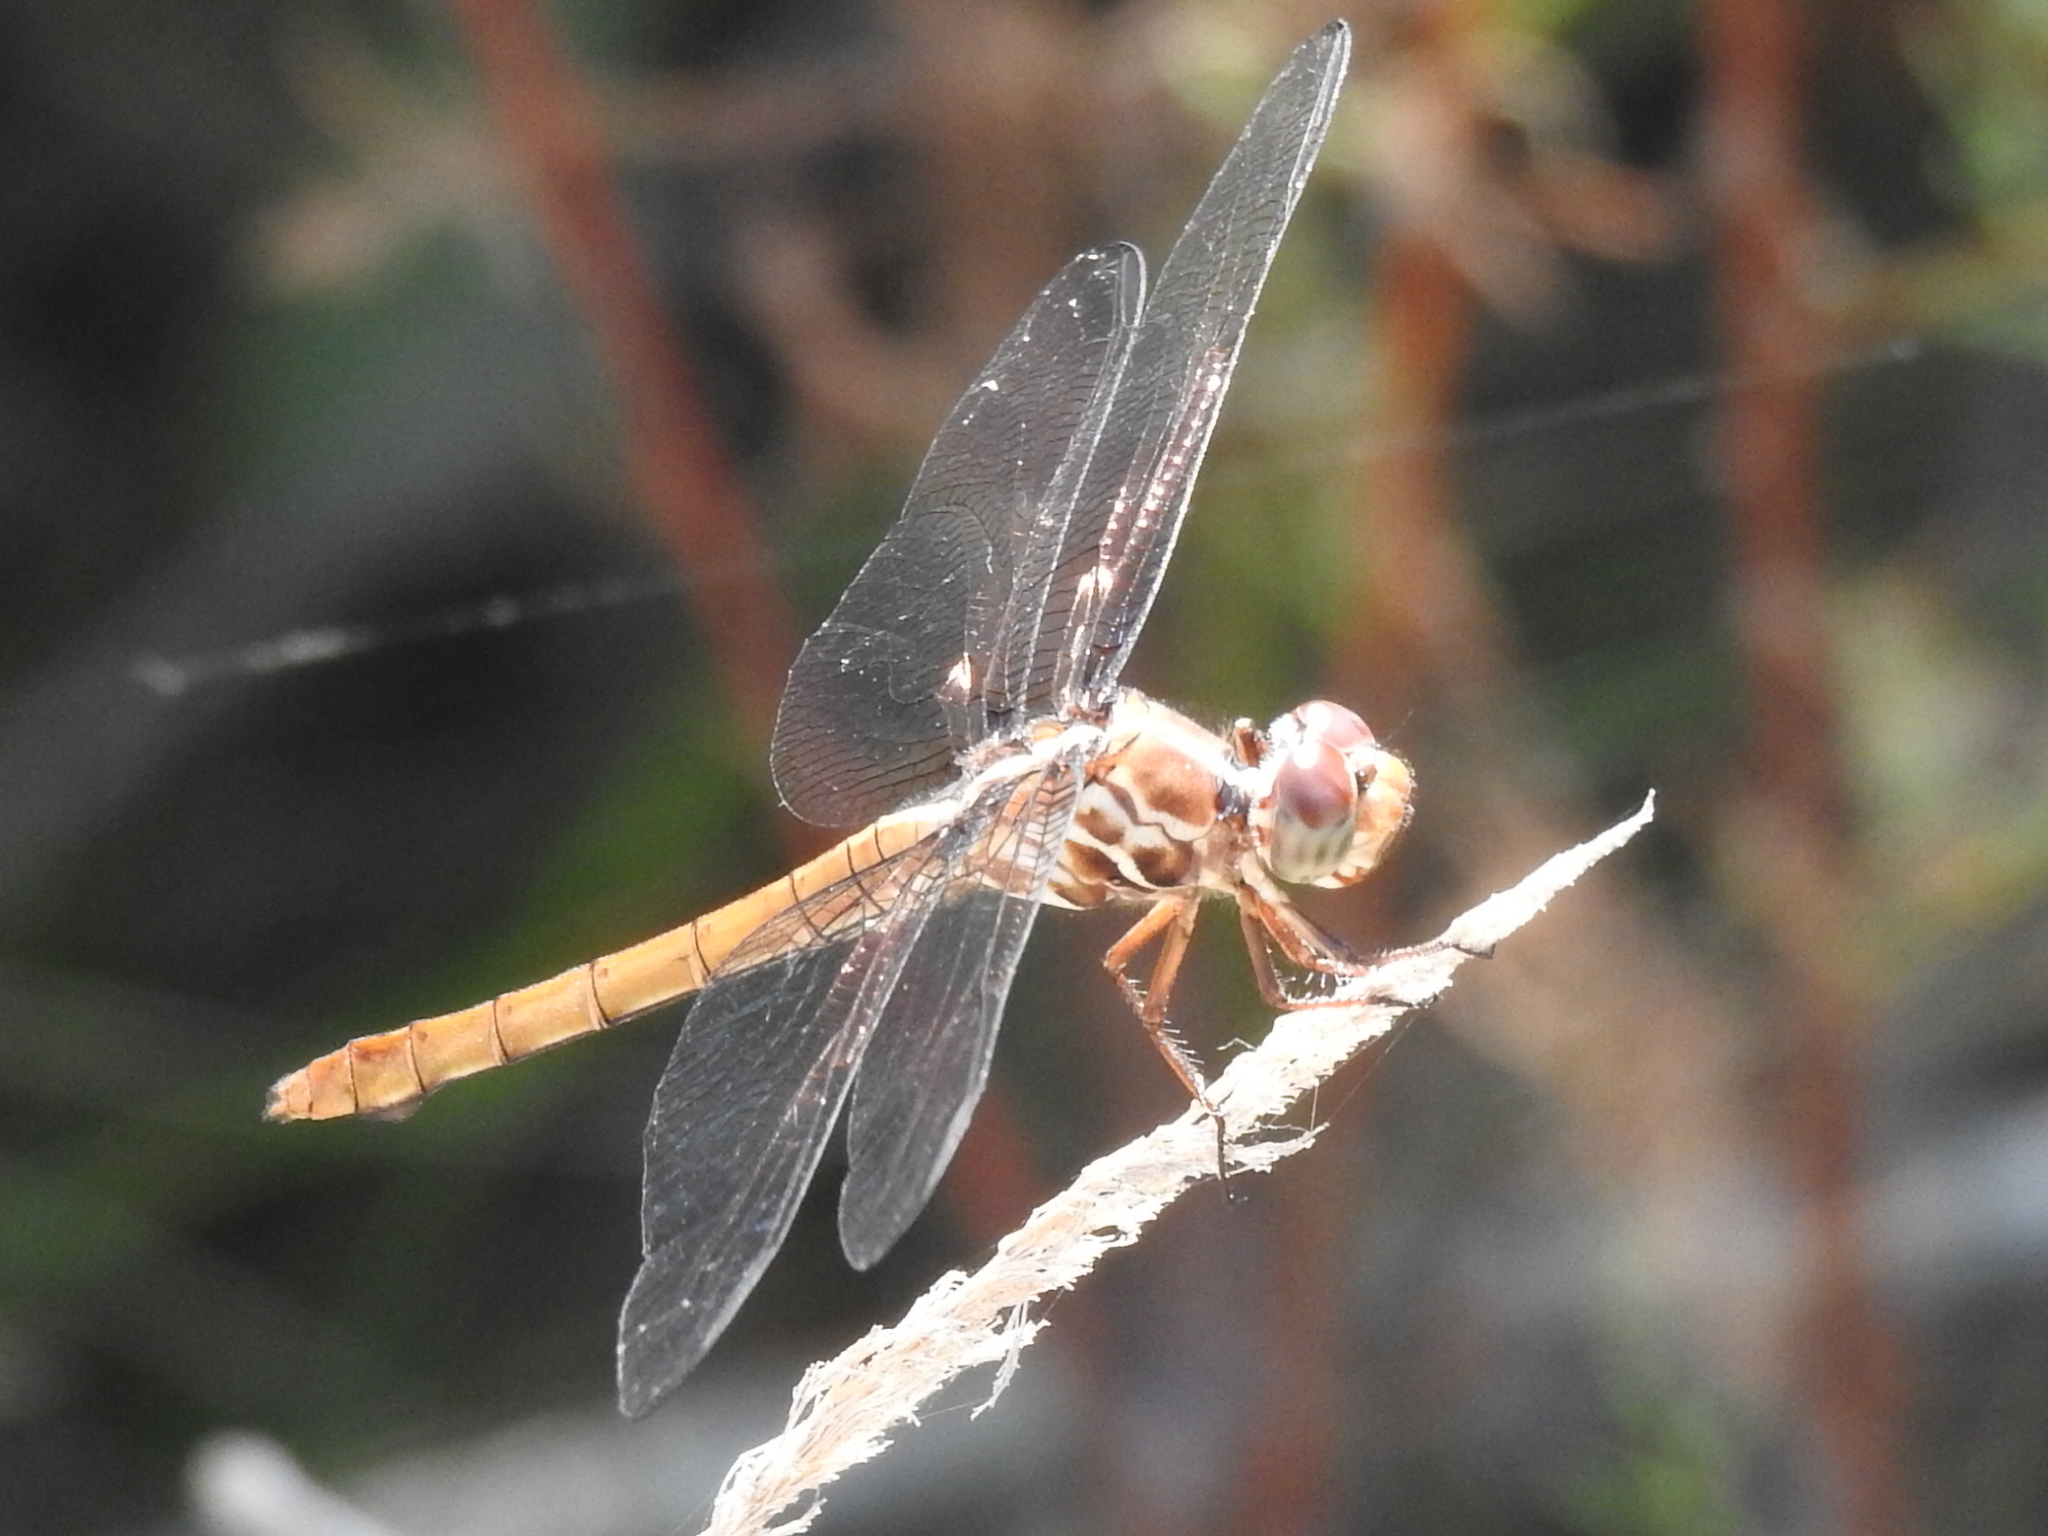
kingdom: Animalia
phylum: Arthropoda
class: Insecta
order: Odonata
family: Libellulidae
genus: Orthemis
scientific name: Orthemis ferruginea
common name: Roseate skimmer
